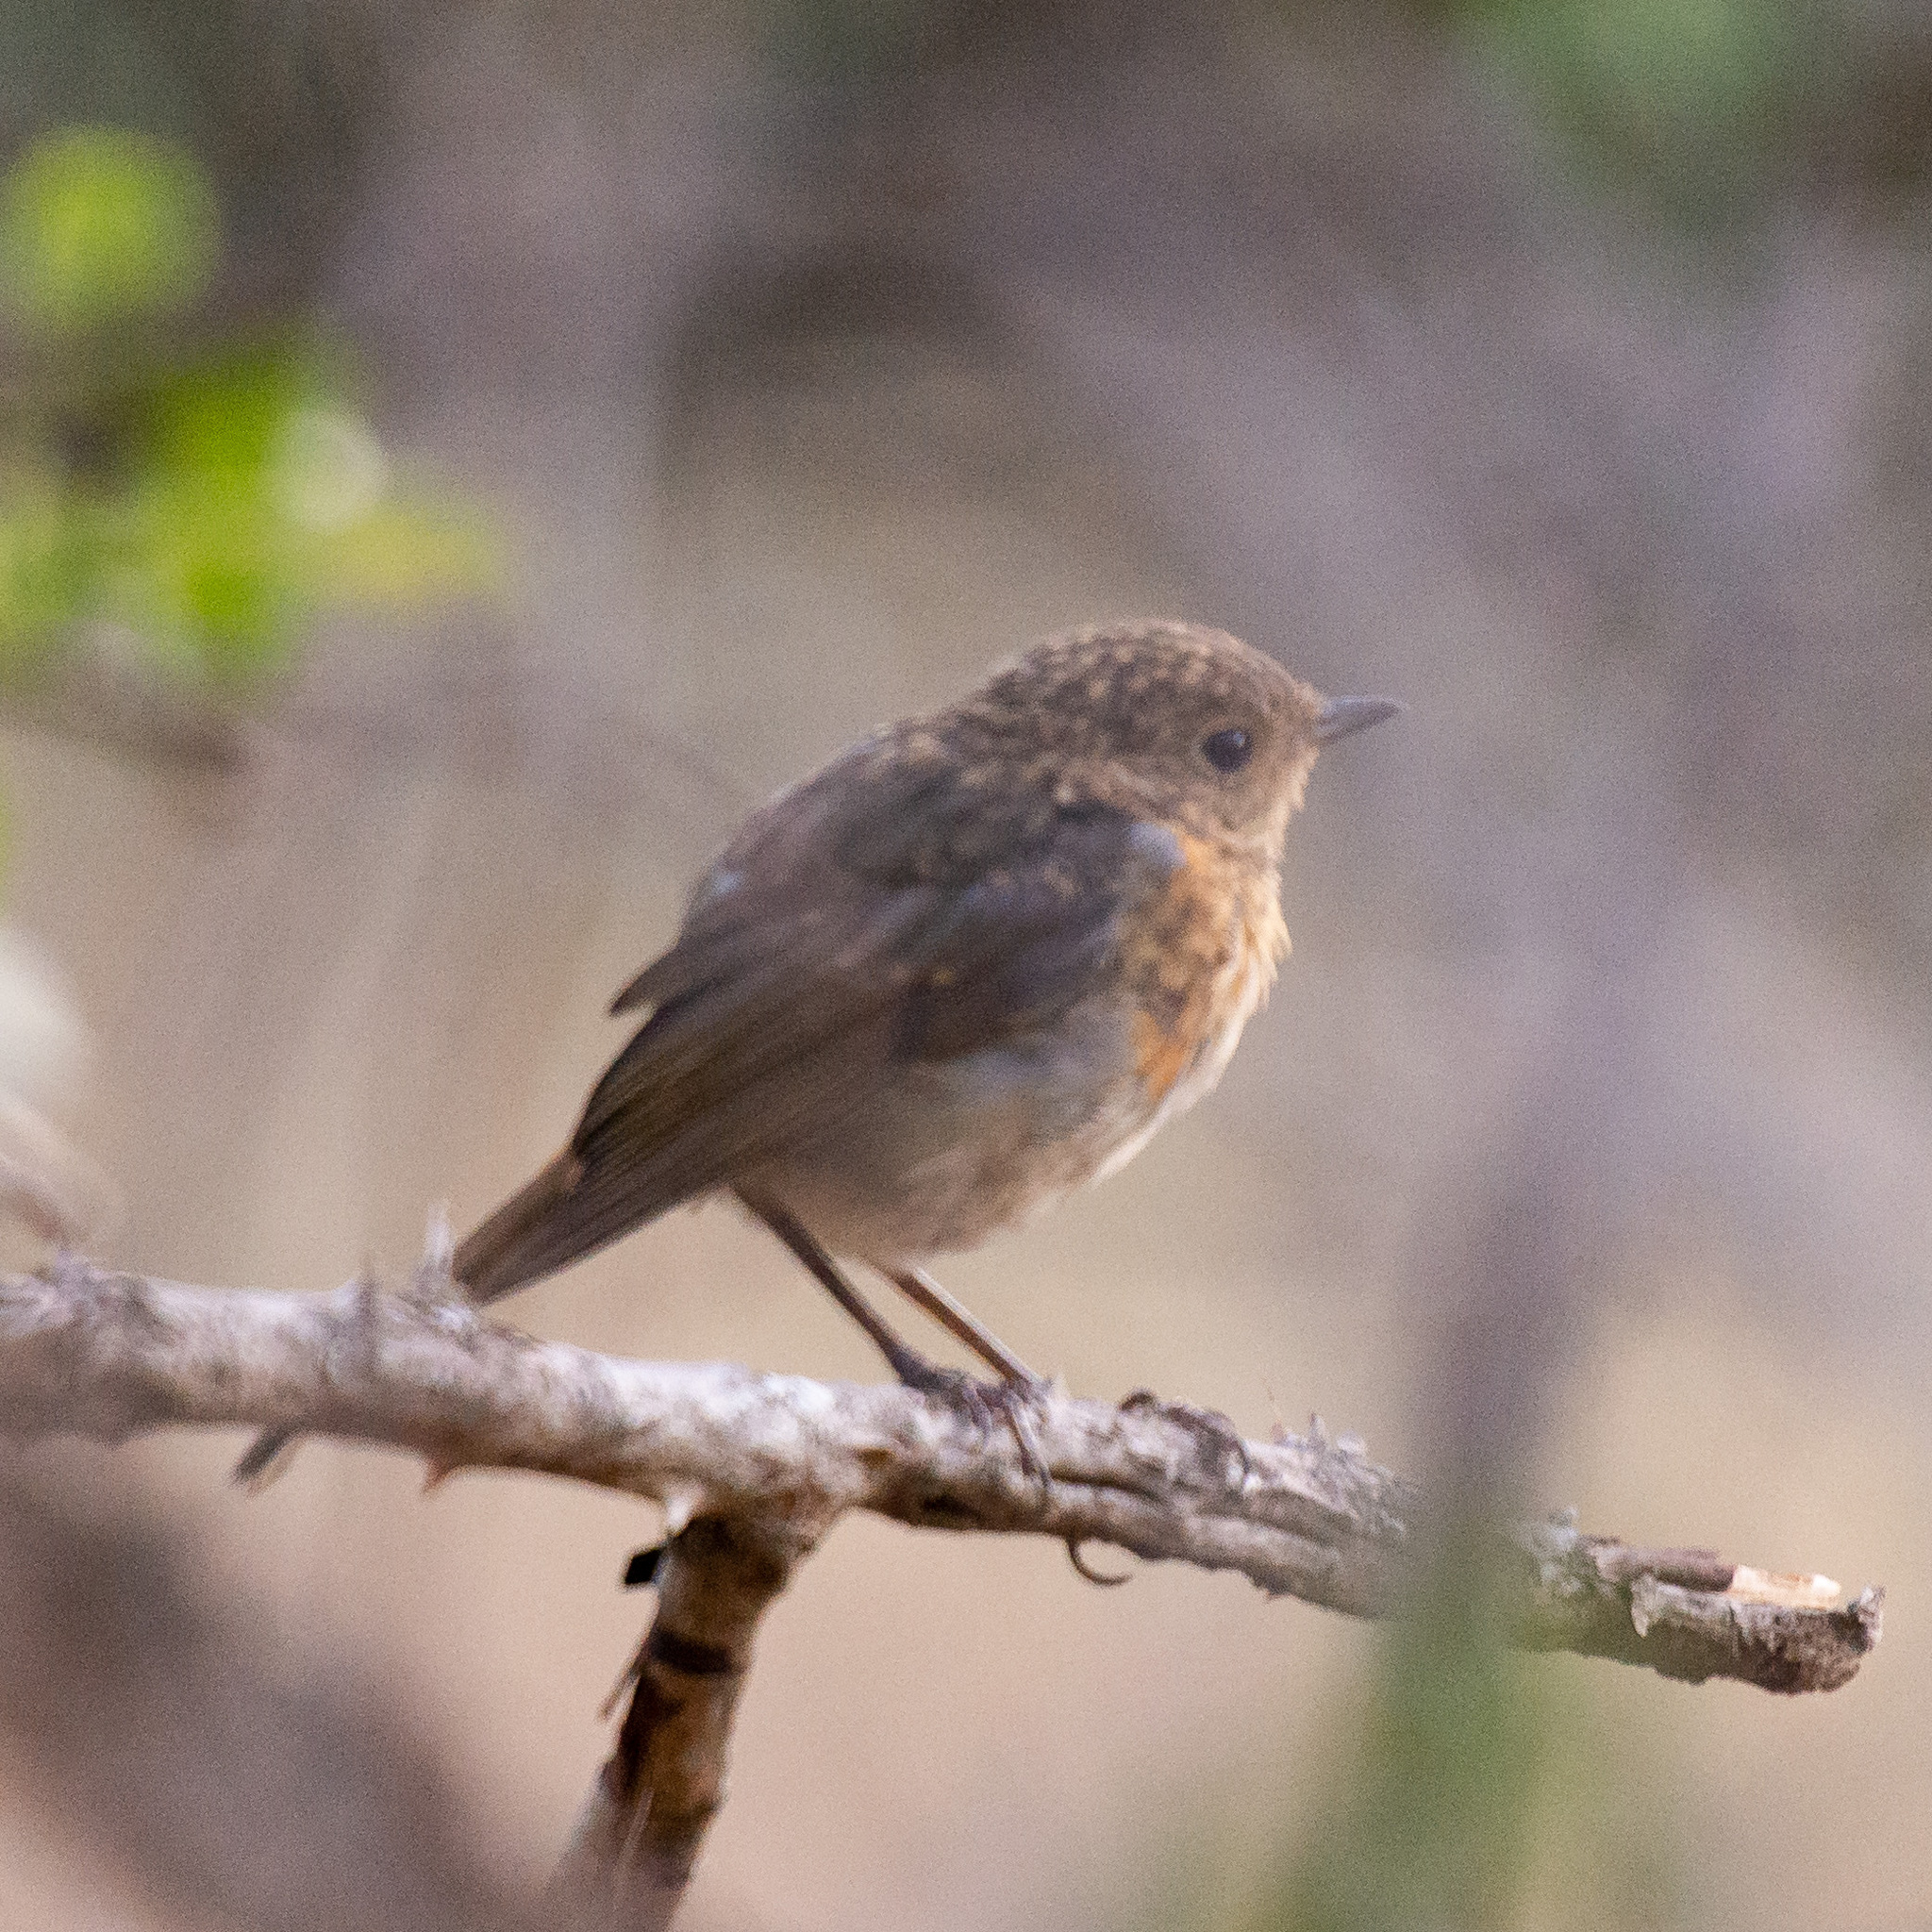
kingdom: Animalia
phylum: Chordata
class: Aves
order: Passeriformes
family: Muscicapidae
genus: Erithacus
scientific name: Erithacus rubecula
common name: European robin
